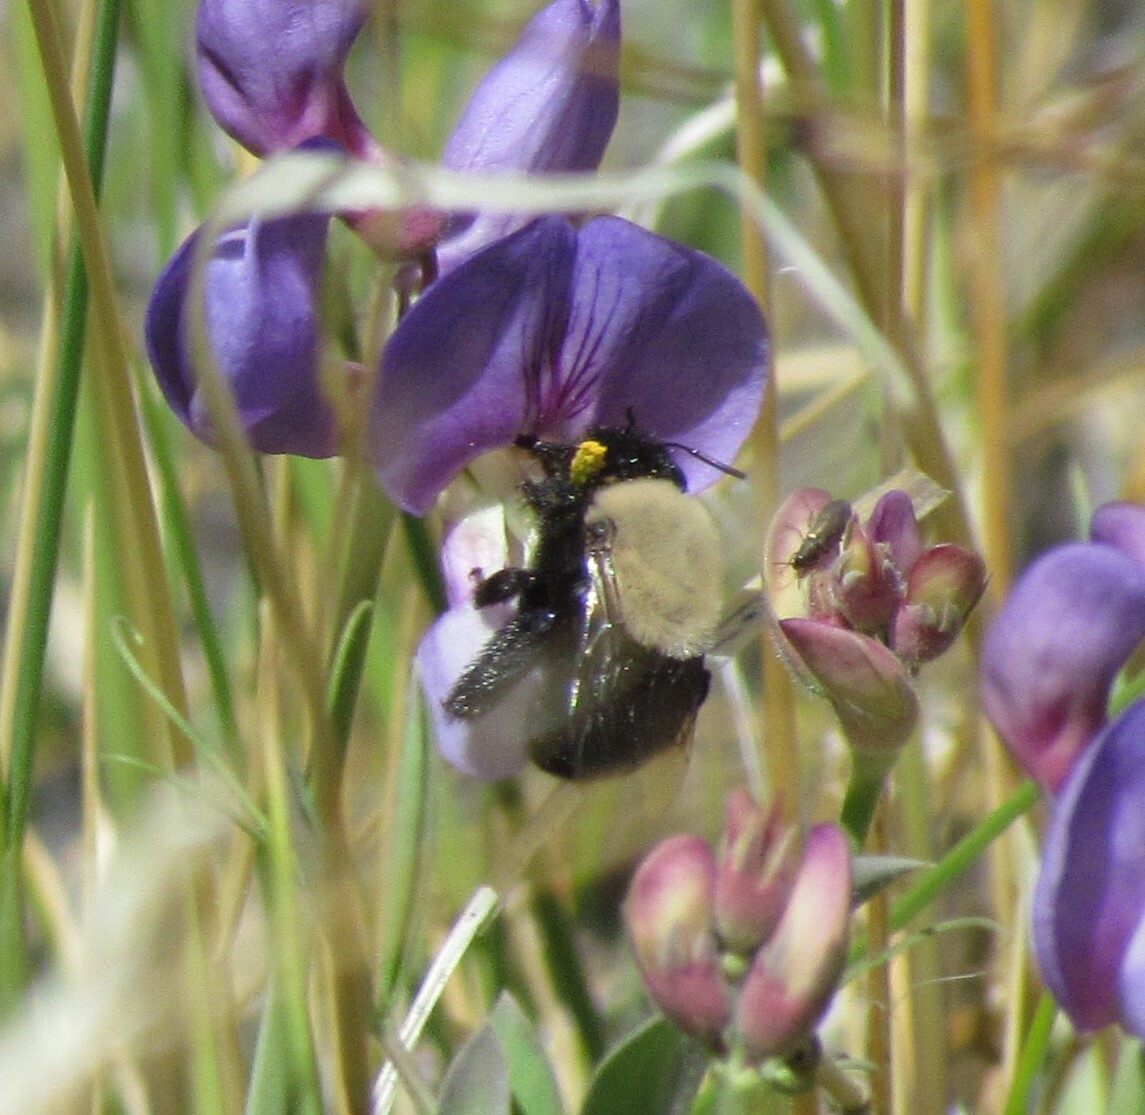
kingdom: Animalia
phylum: Arthropoda
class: Insecta
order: Hymenoptera
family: Apidae
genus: Centris
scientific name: Centris cineraria
